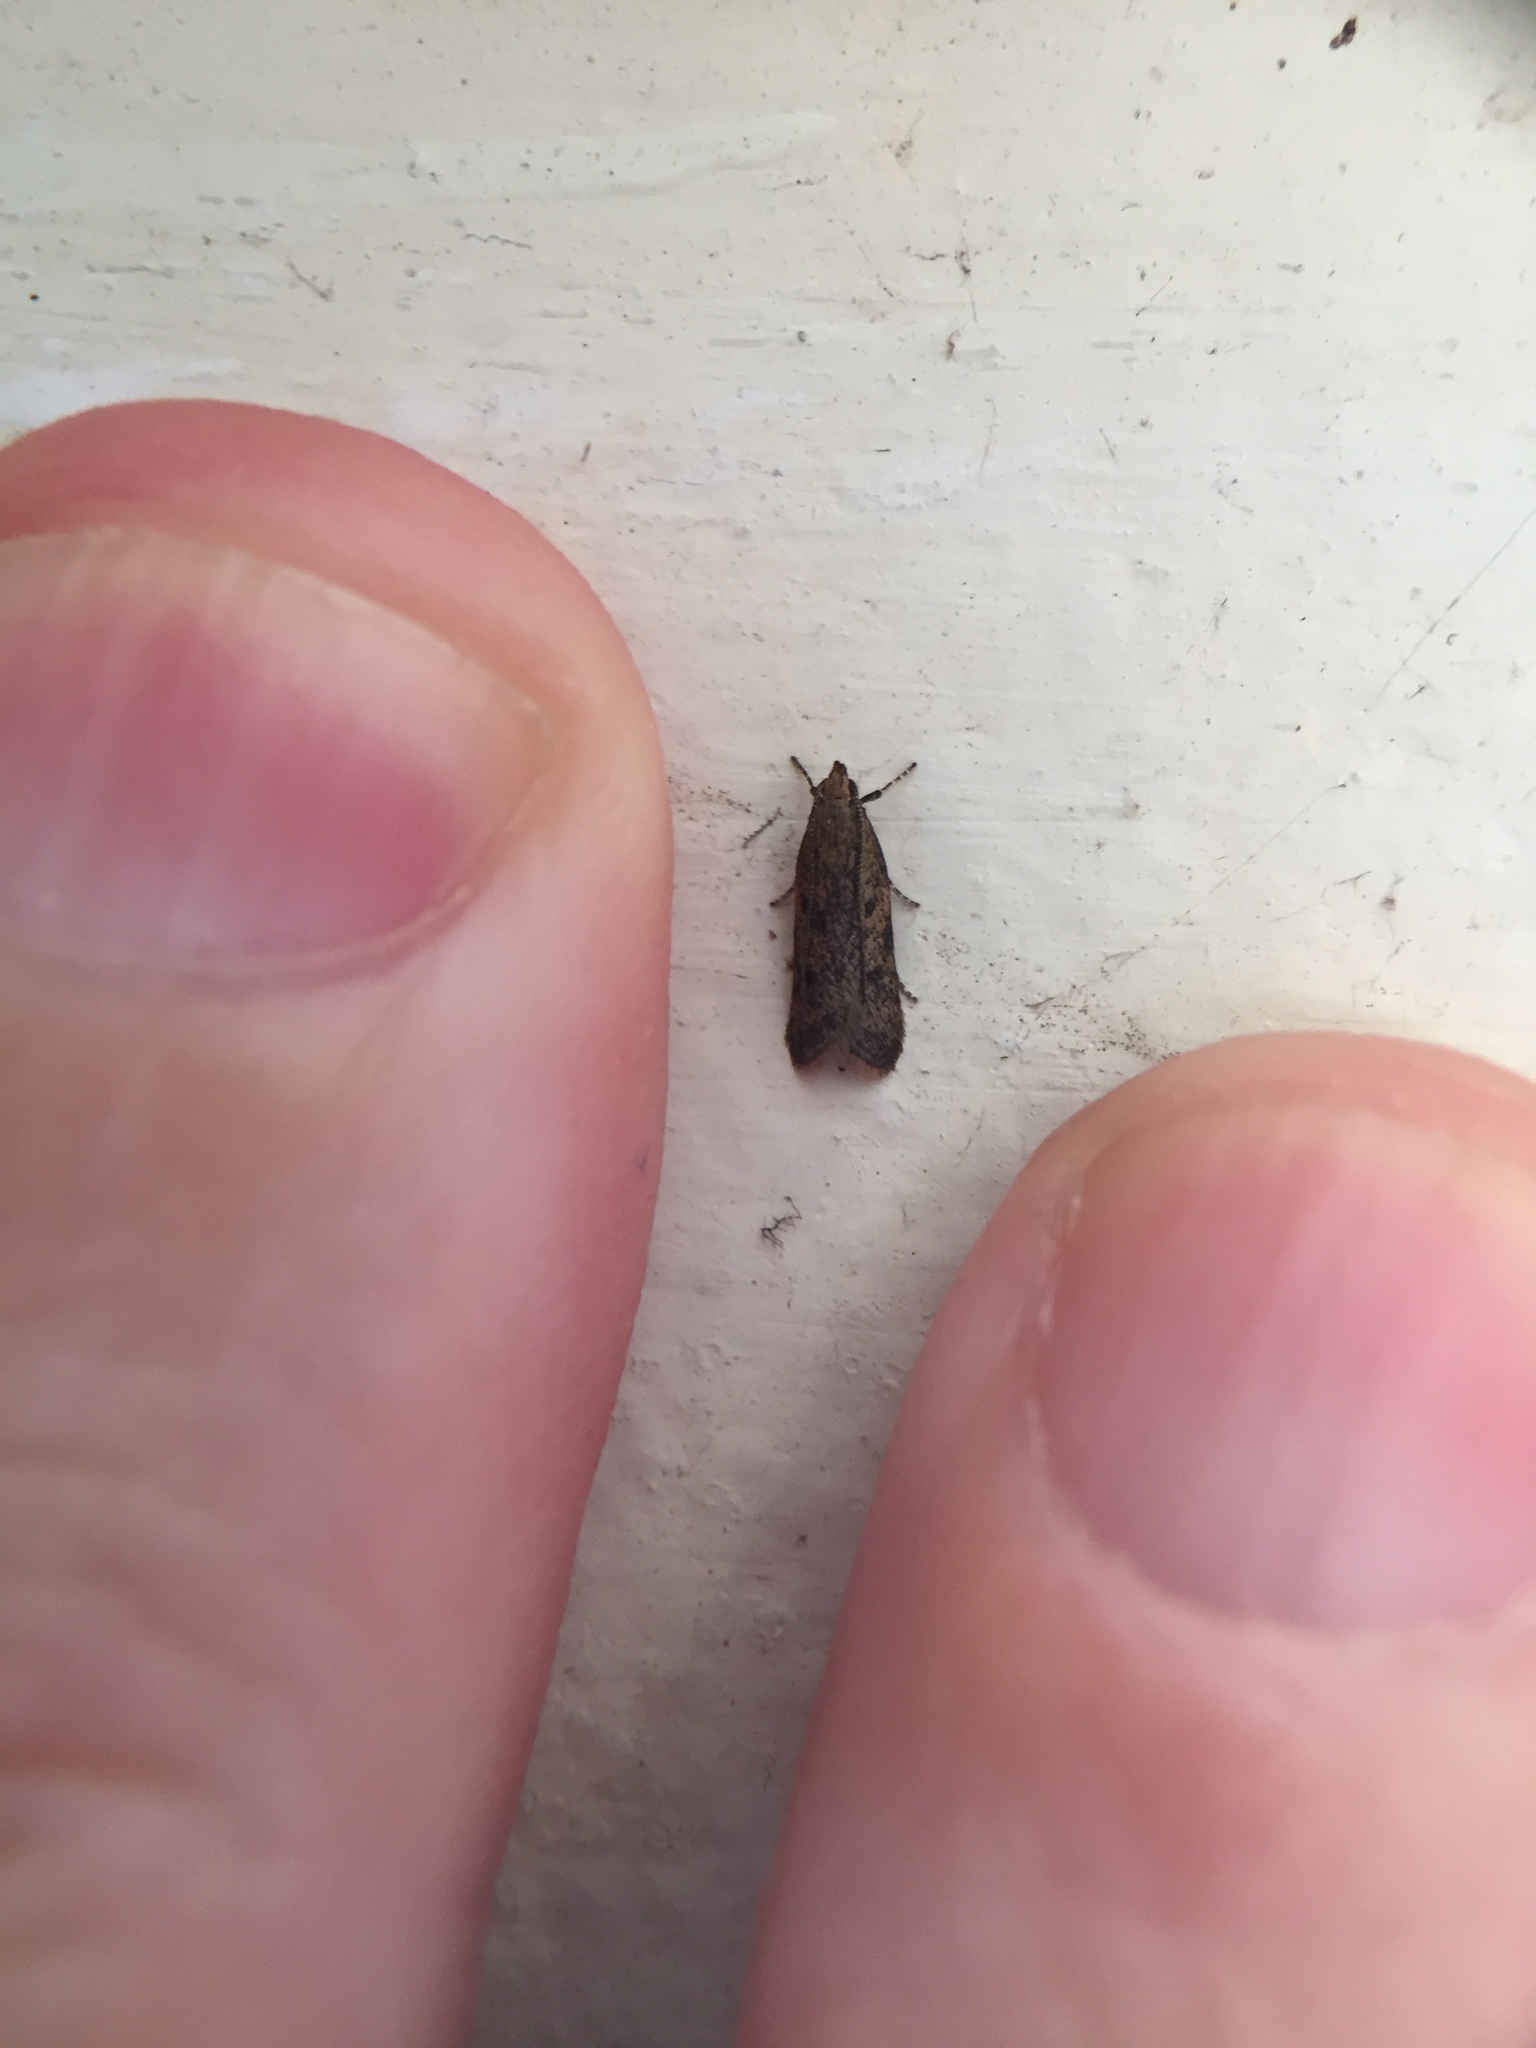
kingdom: Animalia
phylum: Arthropoda
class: Insecta
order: Lepidoptera
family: Oecophoridae
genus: Gymnobathra
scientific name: Gymnobathra tholodella
